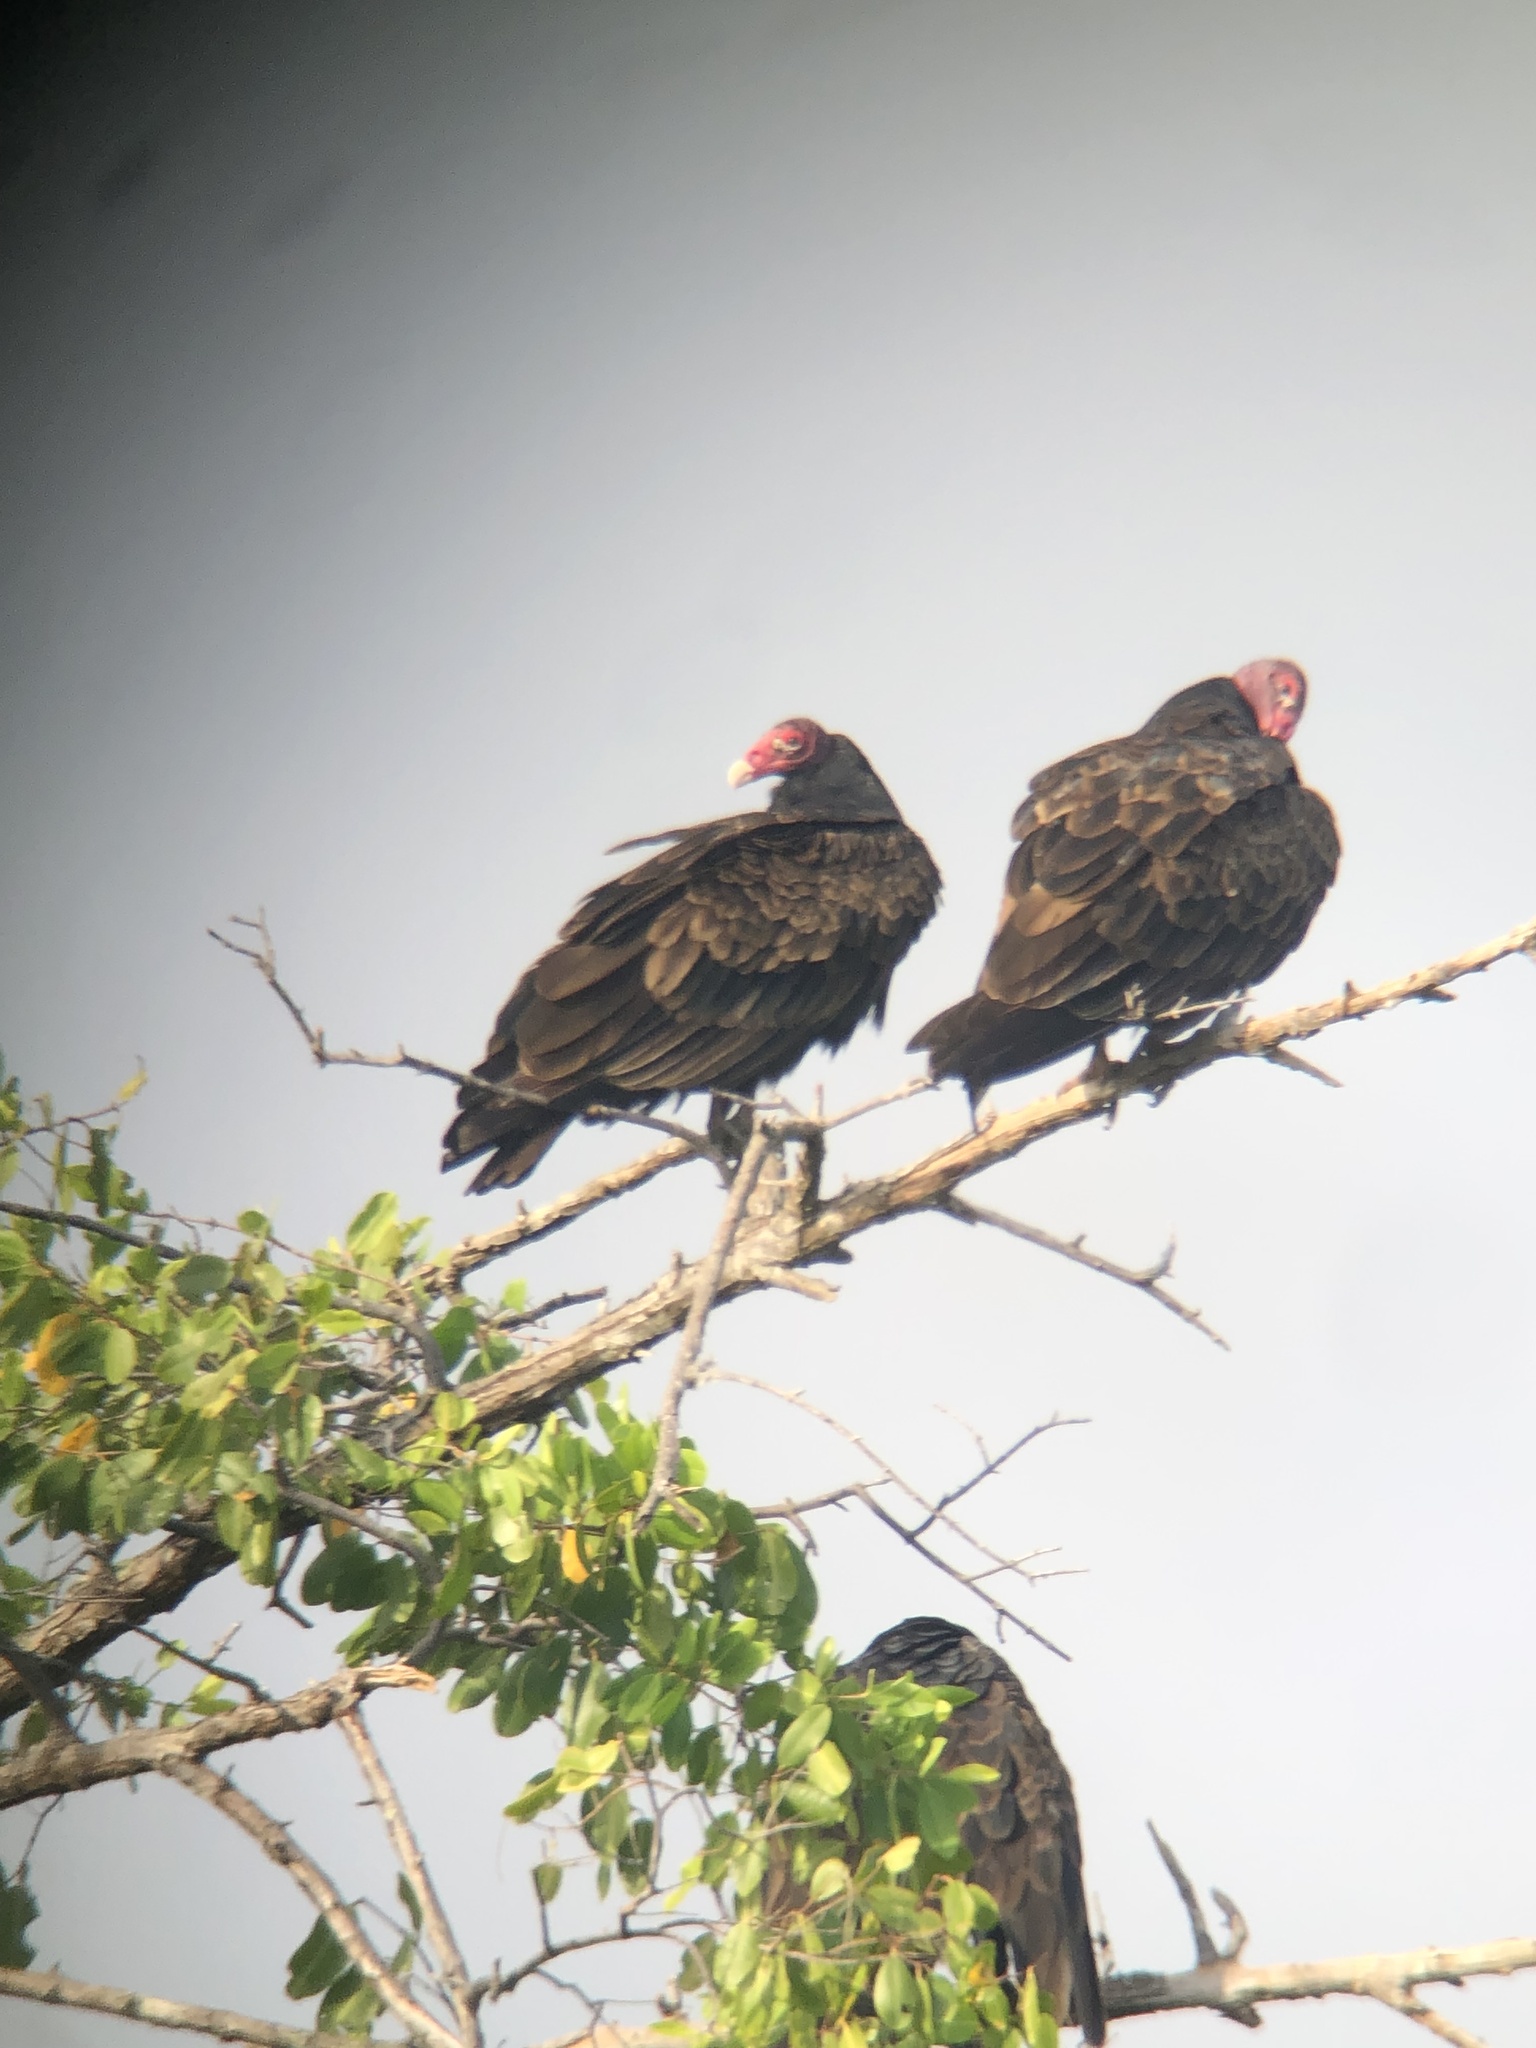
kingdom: Animalia
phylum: Chordata
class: Aves
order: Accipitriformes
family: Cathartidae
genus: Cathartes
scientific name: Cathartes aura
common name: Turkey vulture
